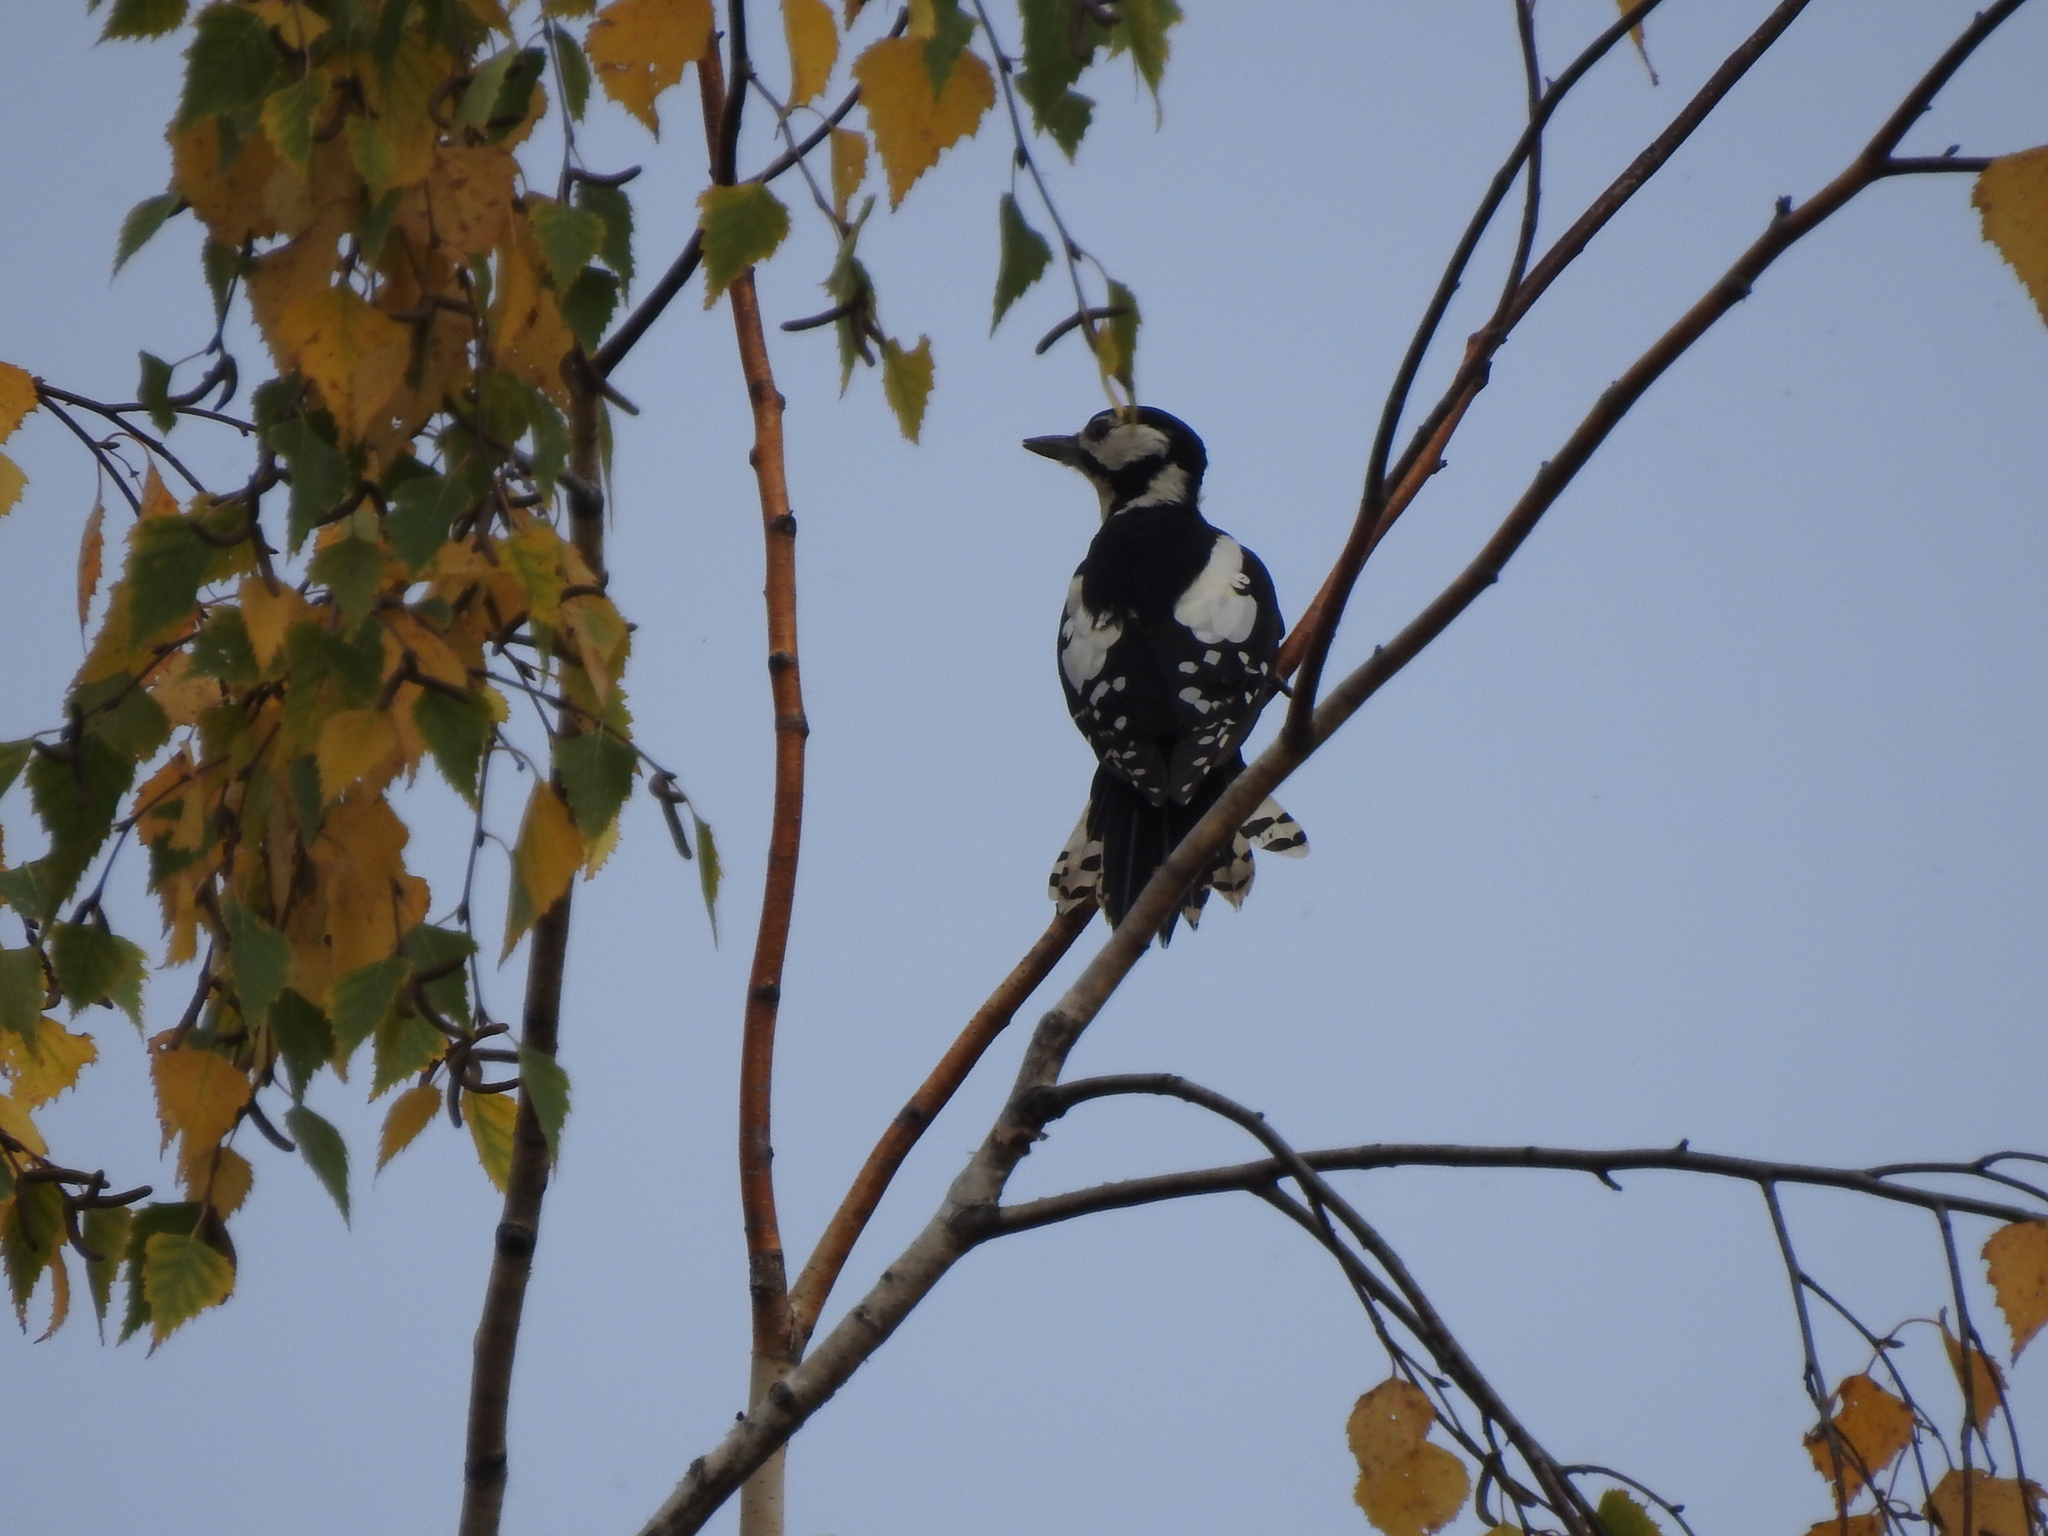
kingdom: Animalia
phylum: Chordata
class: Aves
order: Piciformes
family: Picidae
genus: Dendrocopos
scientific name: Dendrocopos major
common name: Great spotted woodpecker
